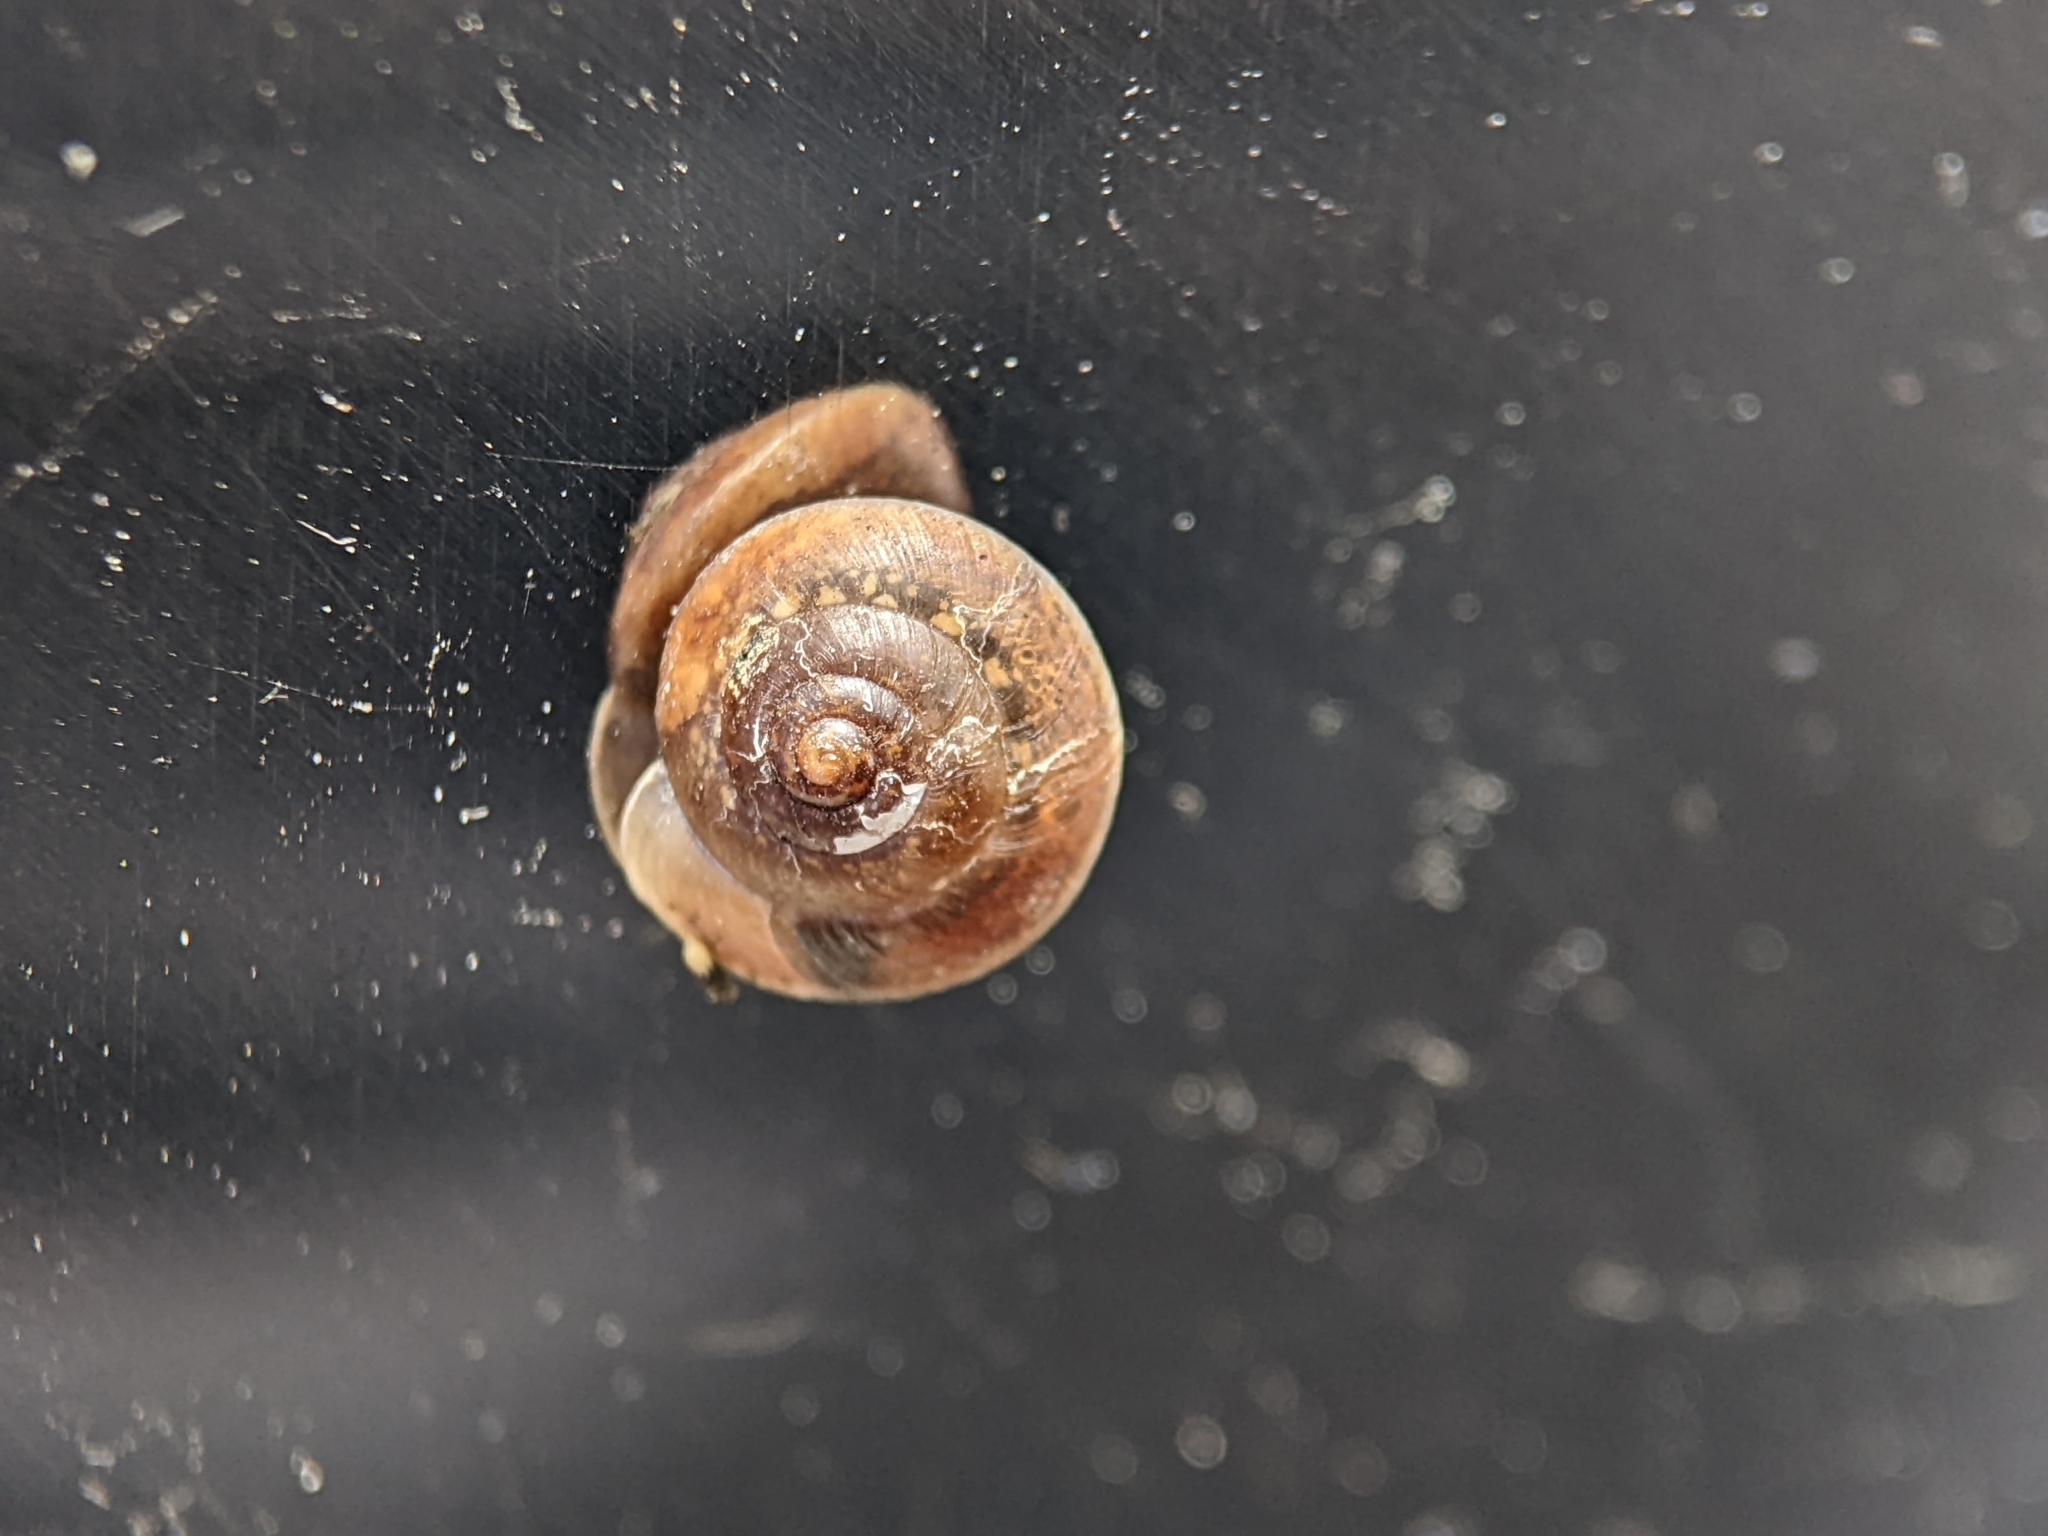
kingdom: Animalia
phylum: Mollusca
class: Gastropoda
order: Stylommatophora
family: Hygromiidae
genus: Hygromia
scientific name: Hygromia cinctella
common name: Girdled snail
